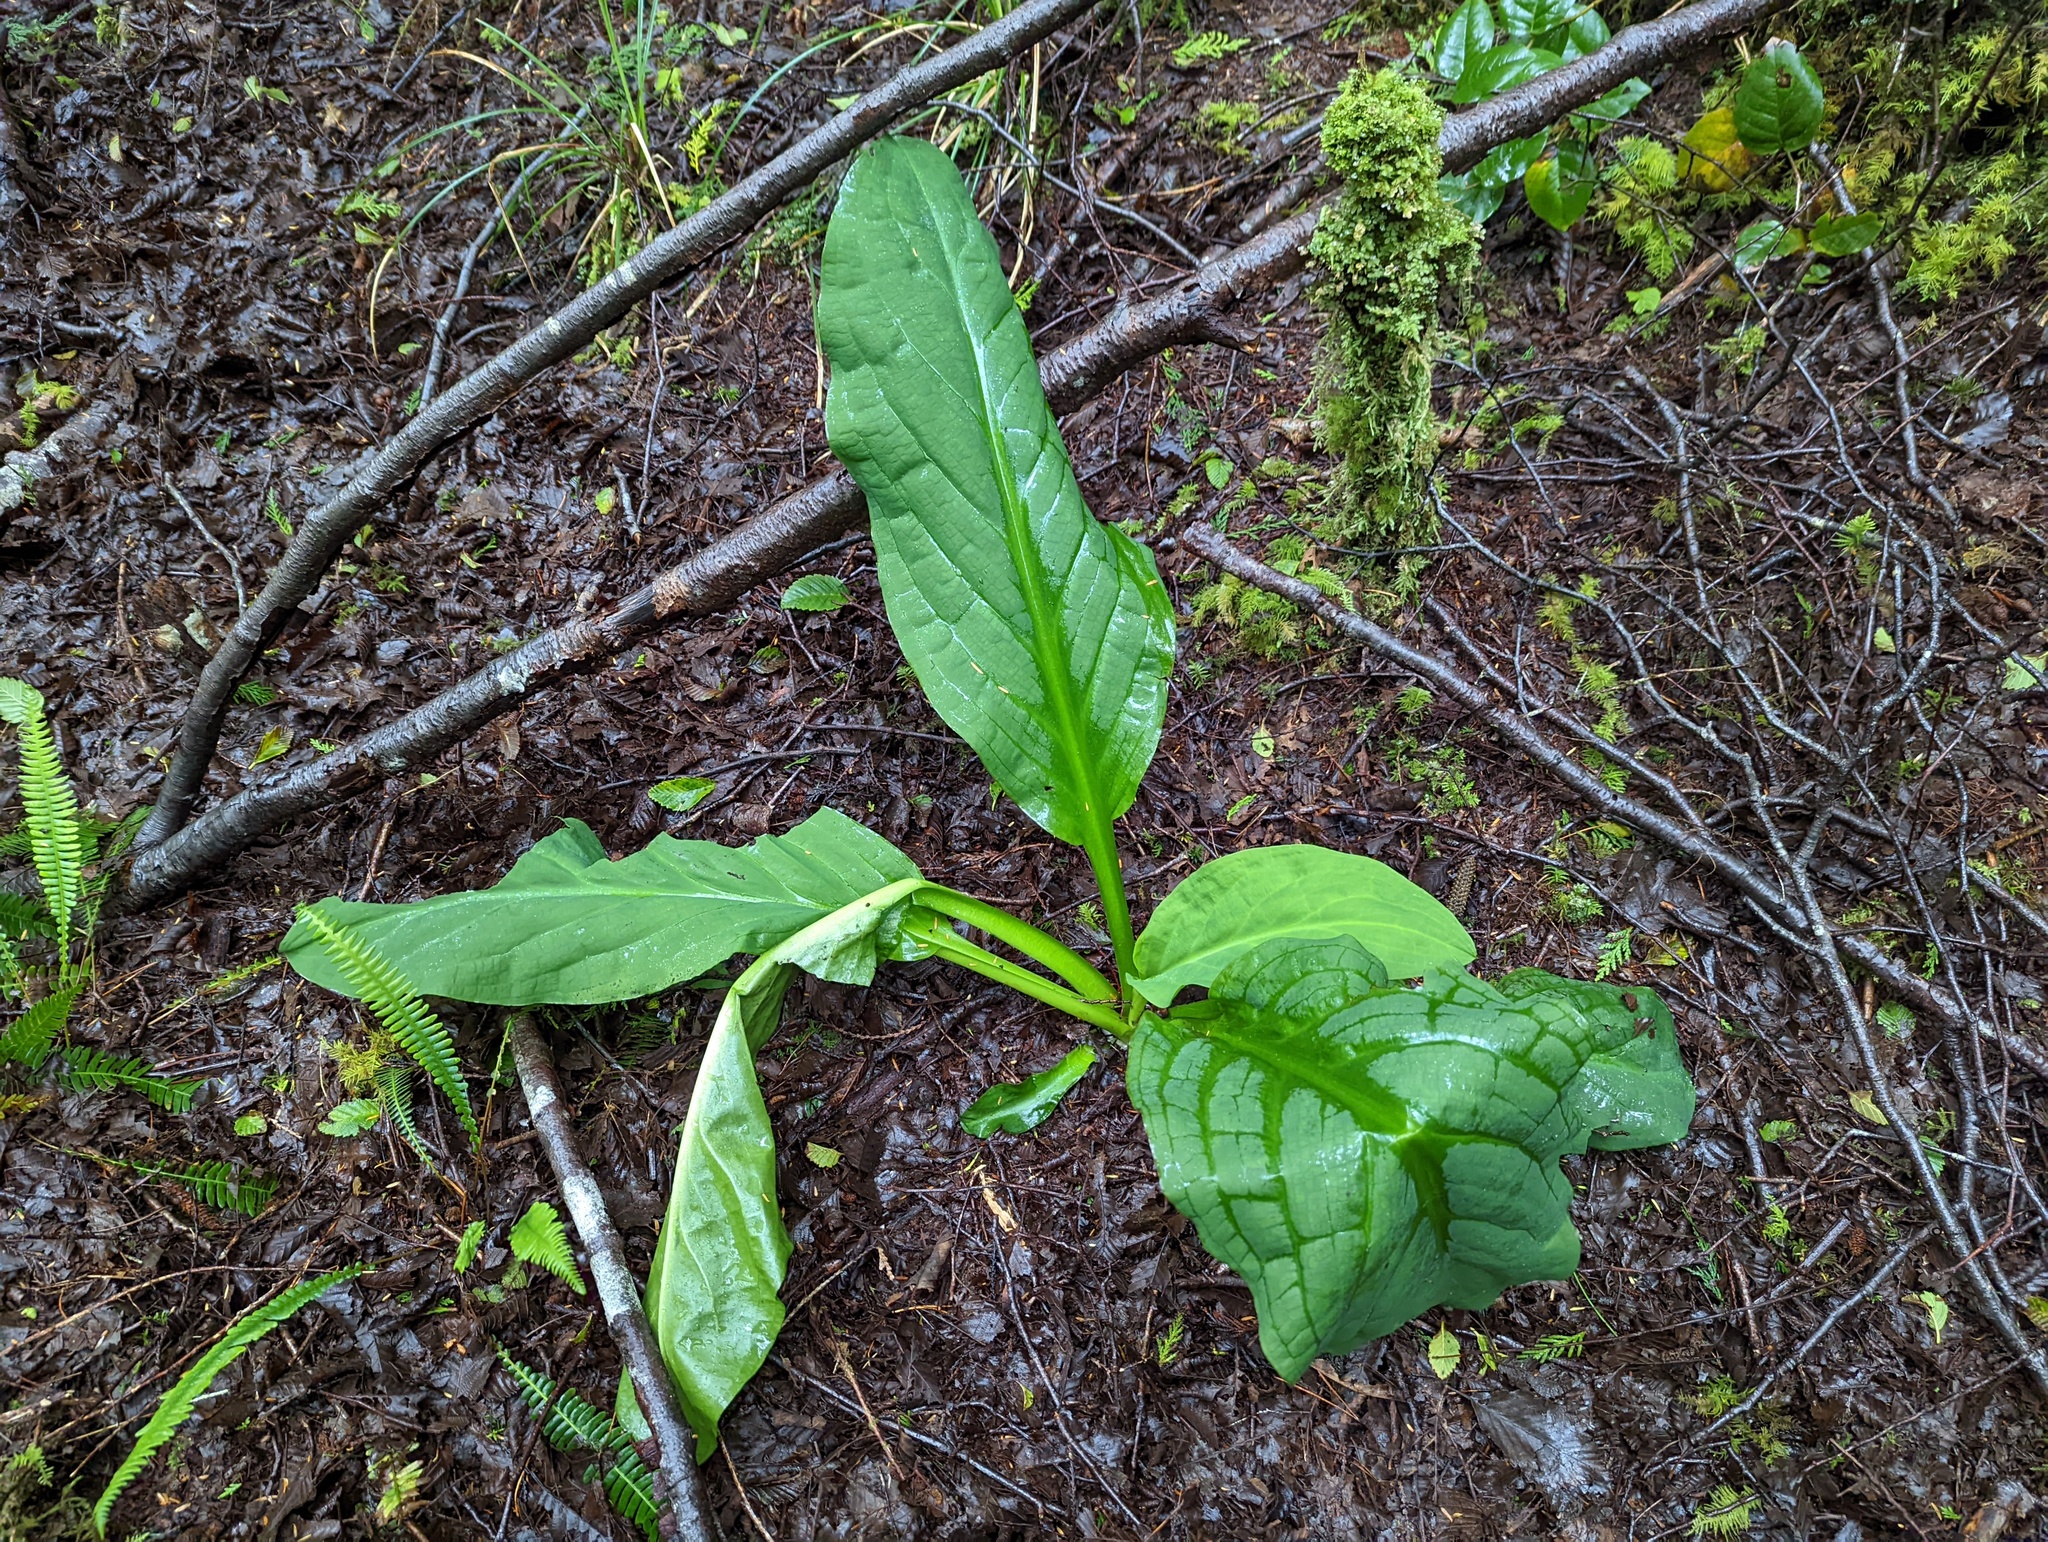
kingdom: Plantae
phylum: Tracheophyta
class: Liliopsida
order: Alismatales
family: Araceae
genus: Lysichiton
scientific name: Lysichiton americanus
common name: American skunk cabbage
